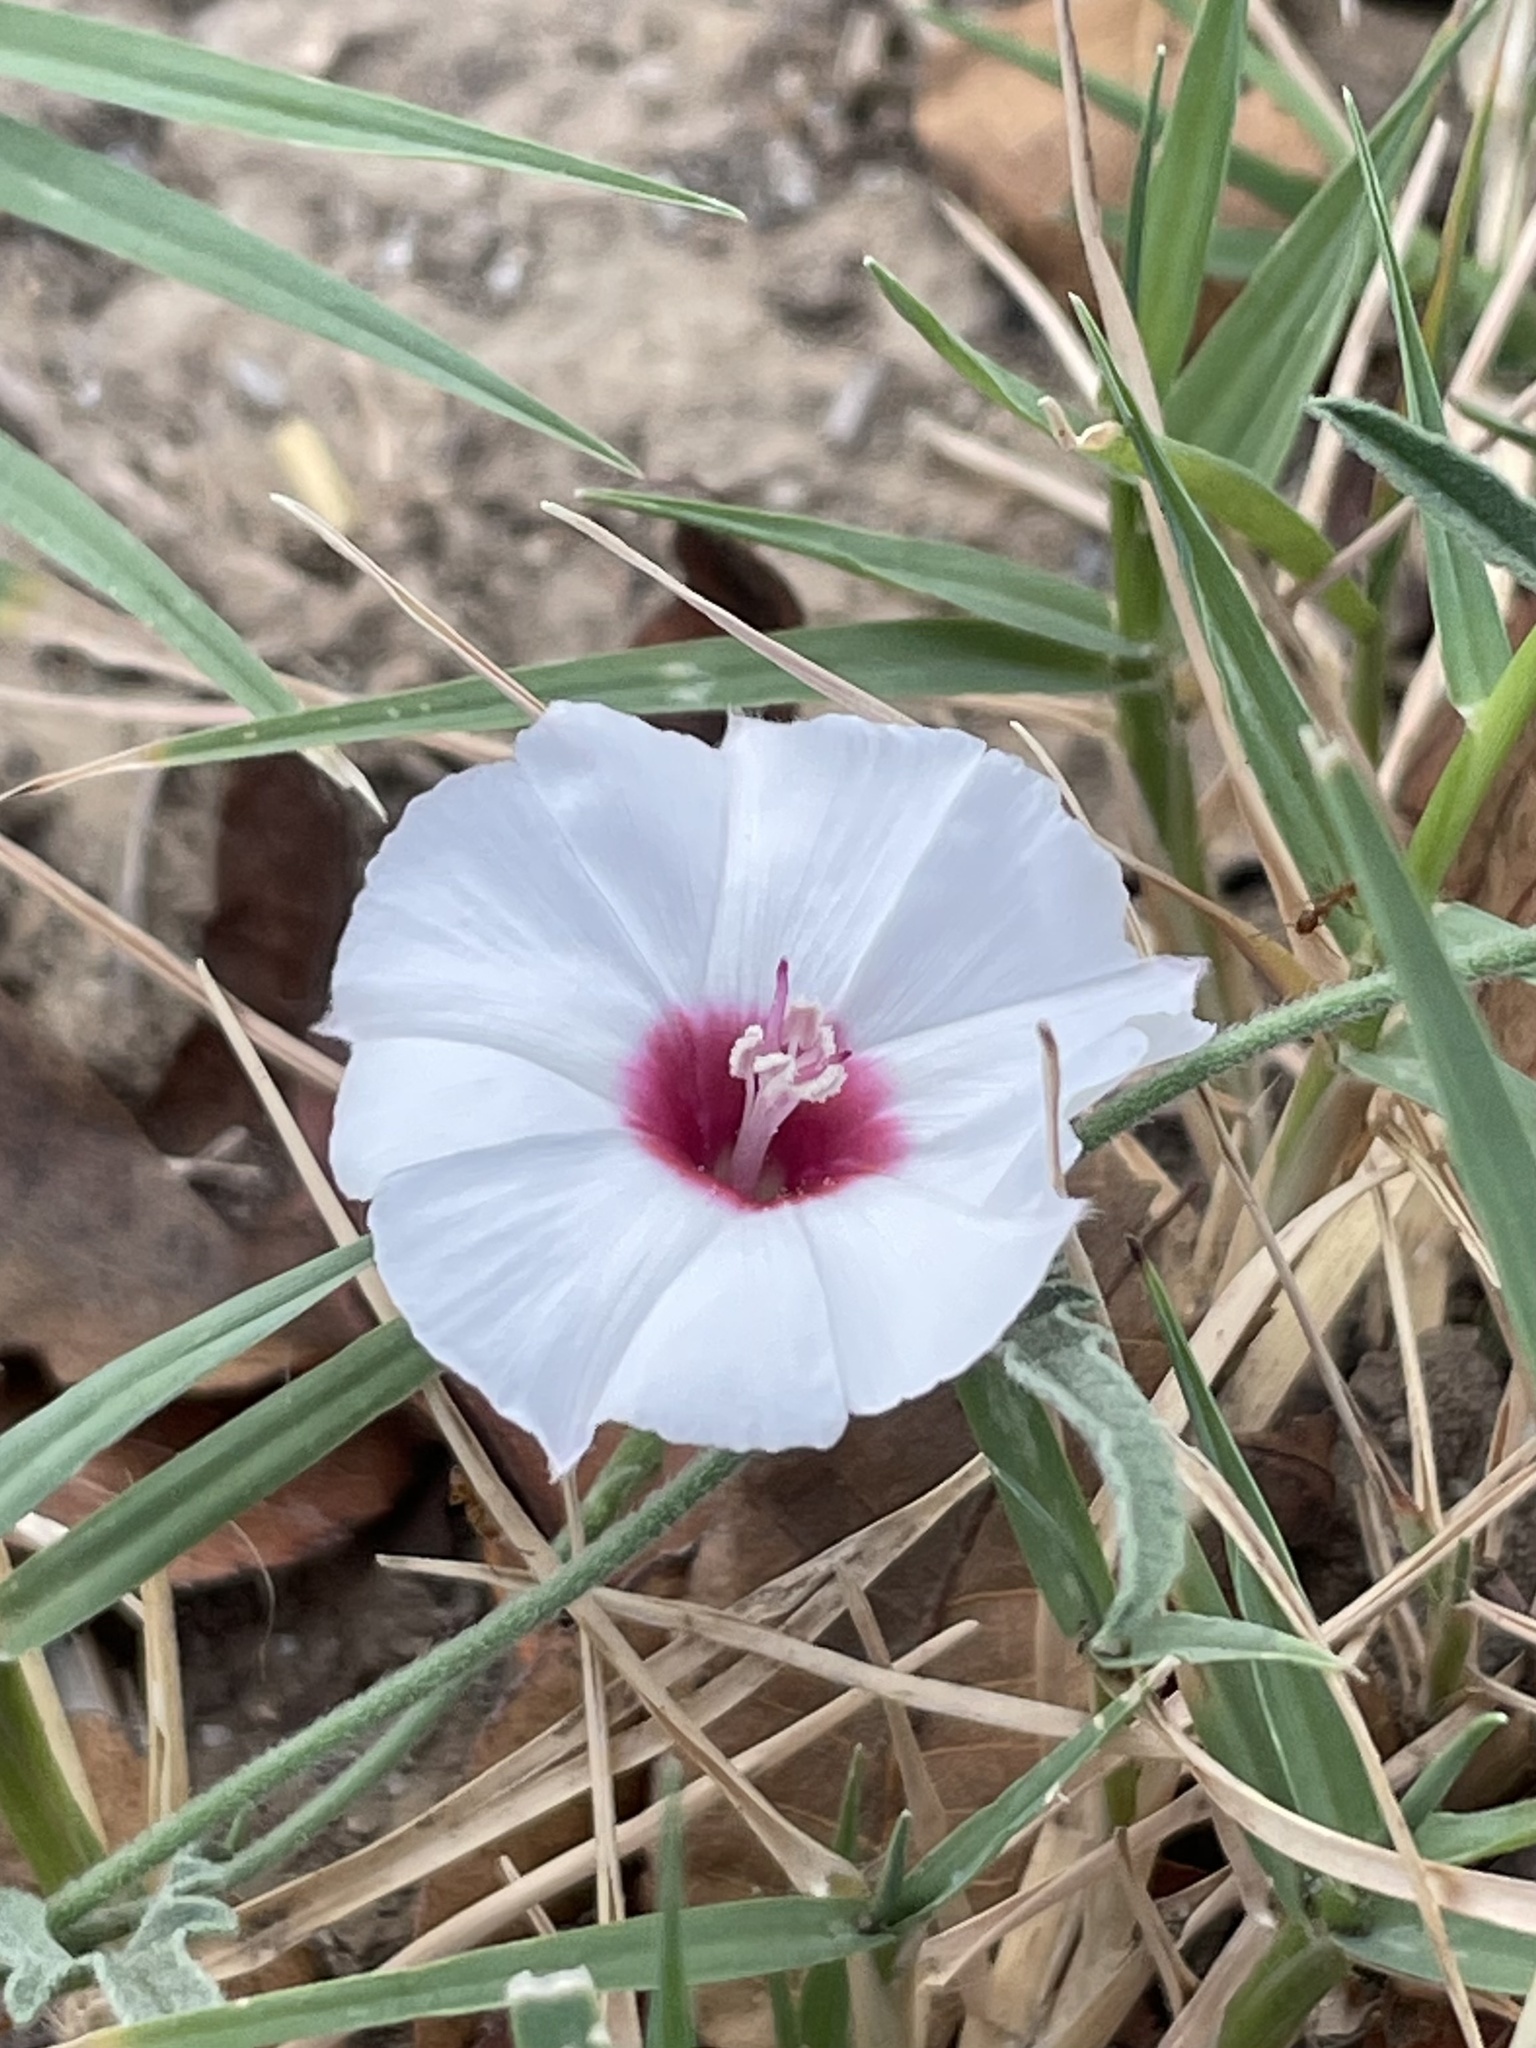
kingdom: Plantae
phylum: Tracheophyta
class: Magnoliopsida
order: Solanales
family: Convolvulaceae
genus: Convolvulus
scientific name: Convolvulus equitans
